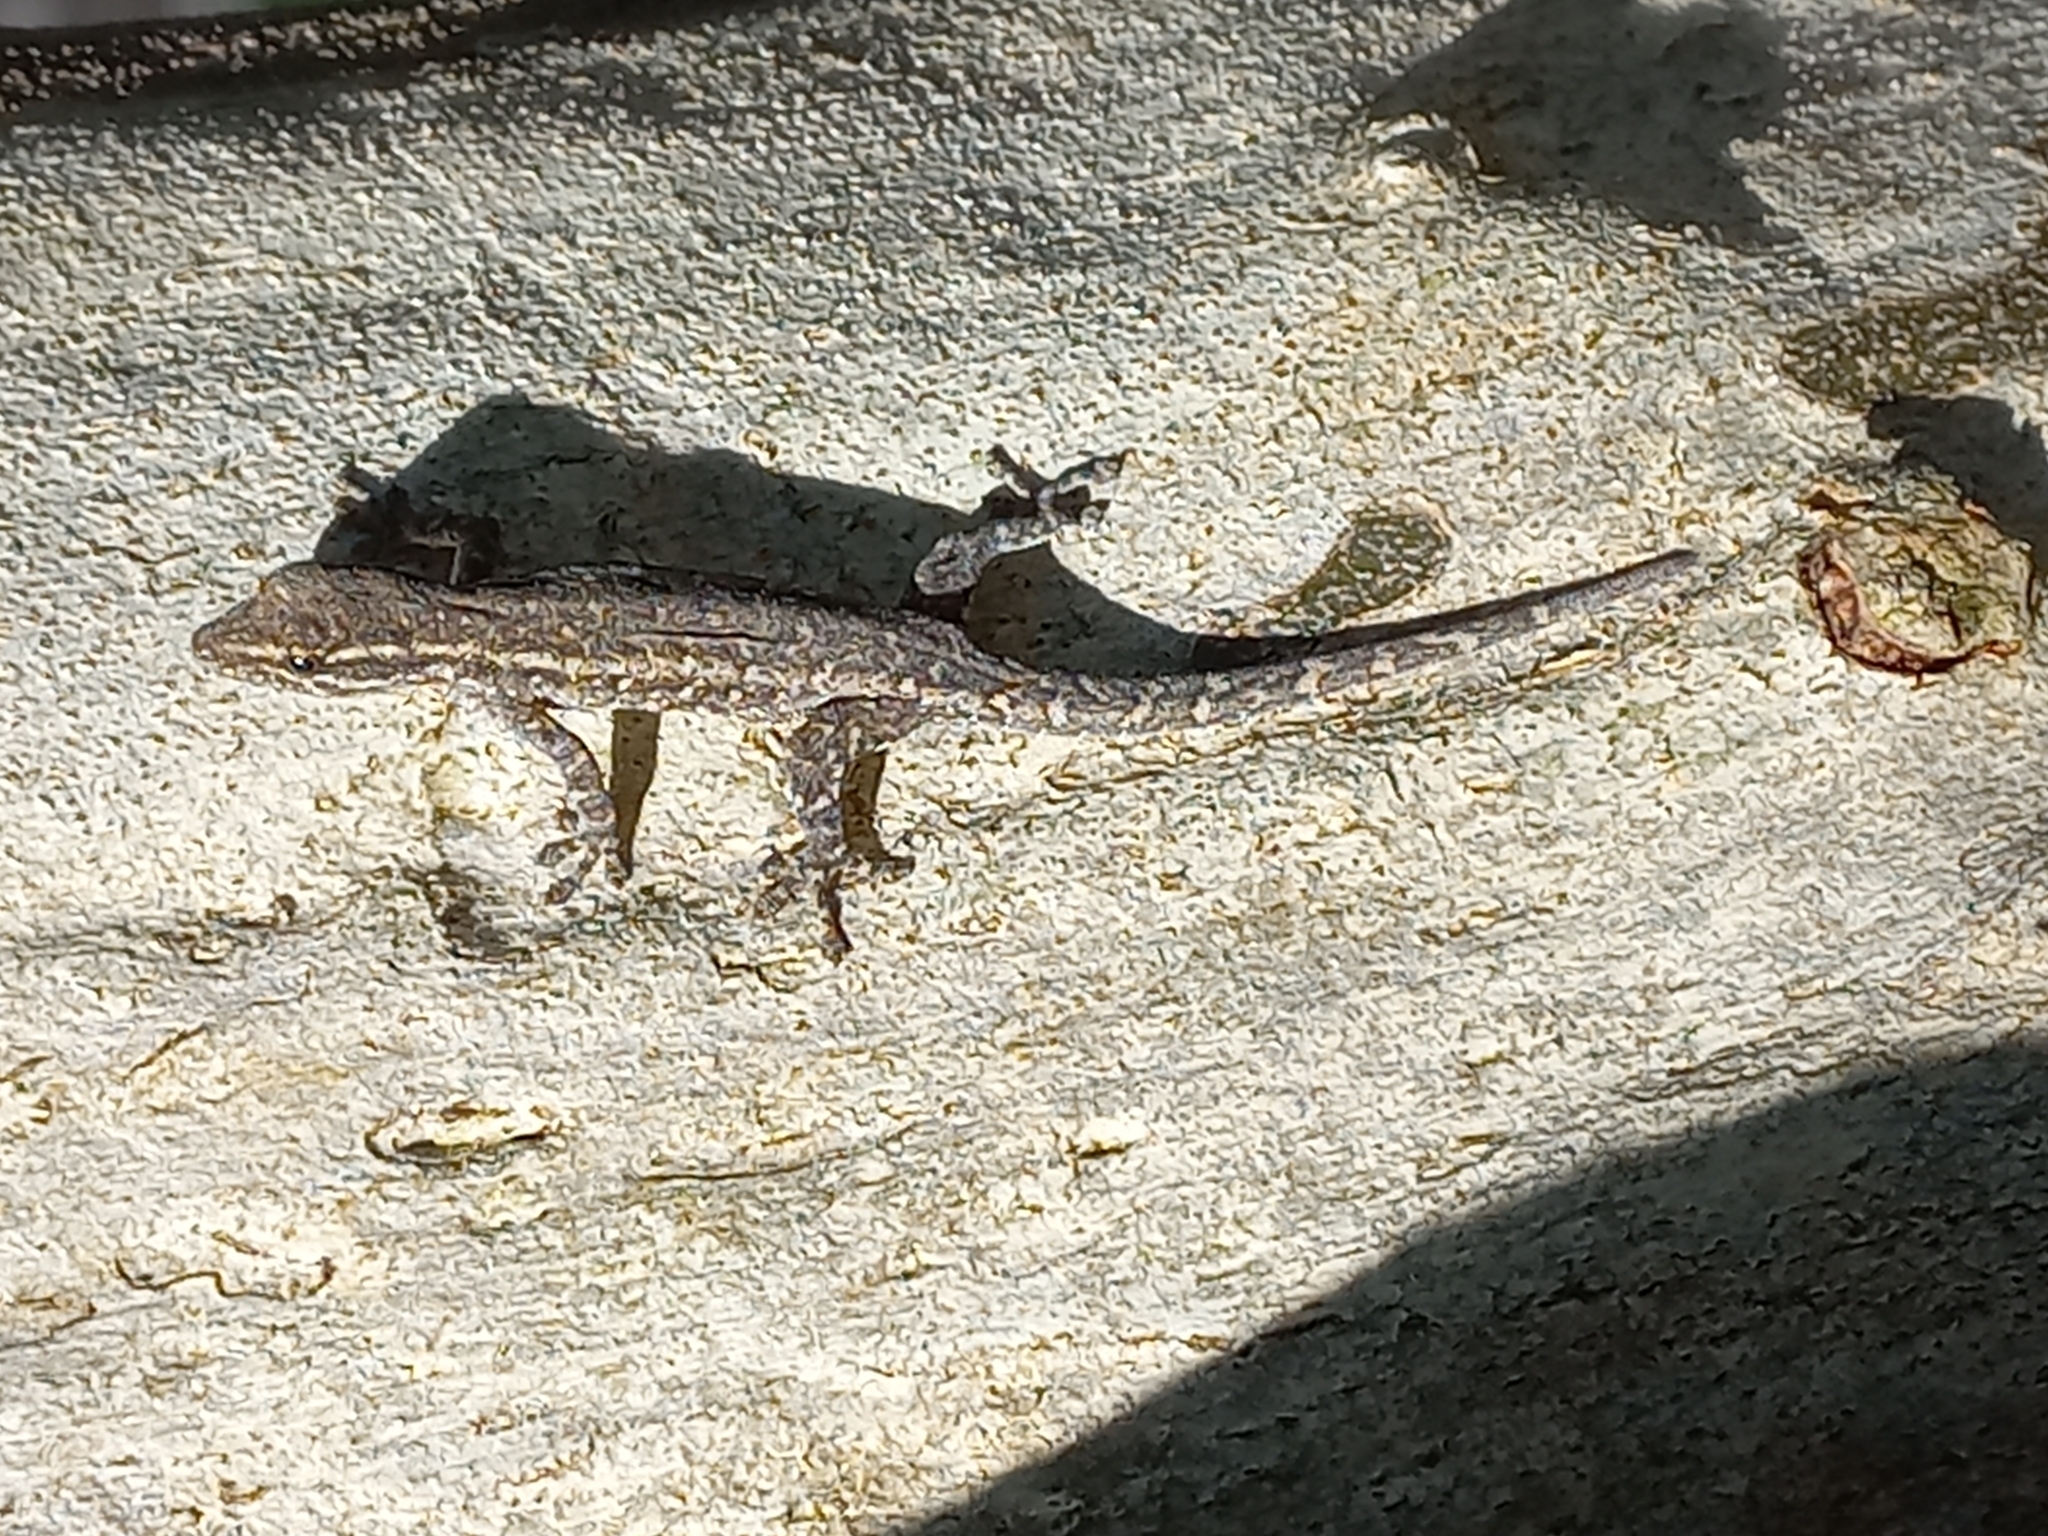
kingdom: Animalia
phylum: Chordata
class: Squamata
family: Gekkonidae
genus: Lygodactylus
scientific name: Lygodactylus capensis
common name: Cape dwarf gecko
